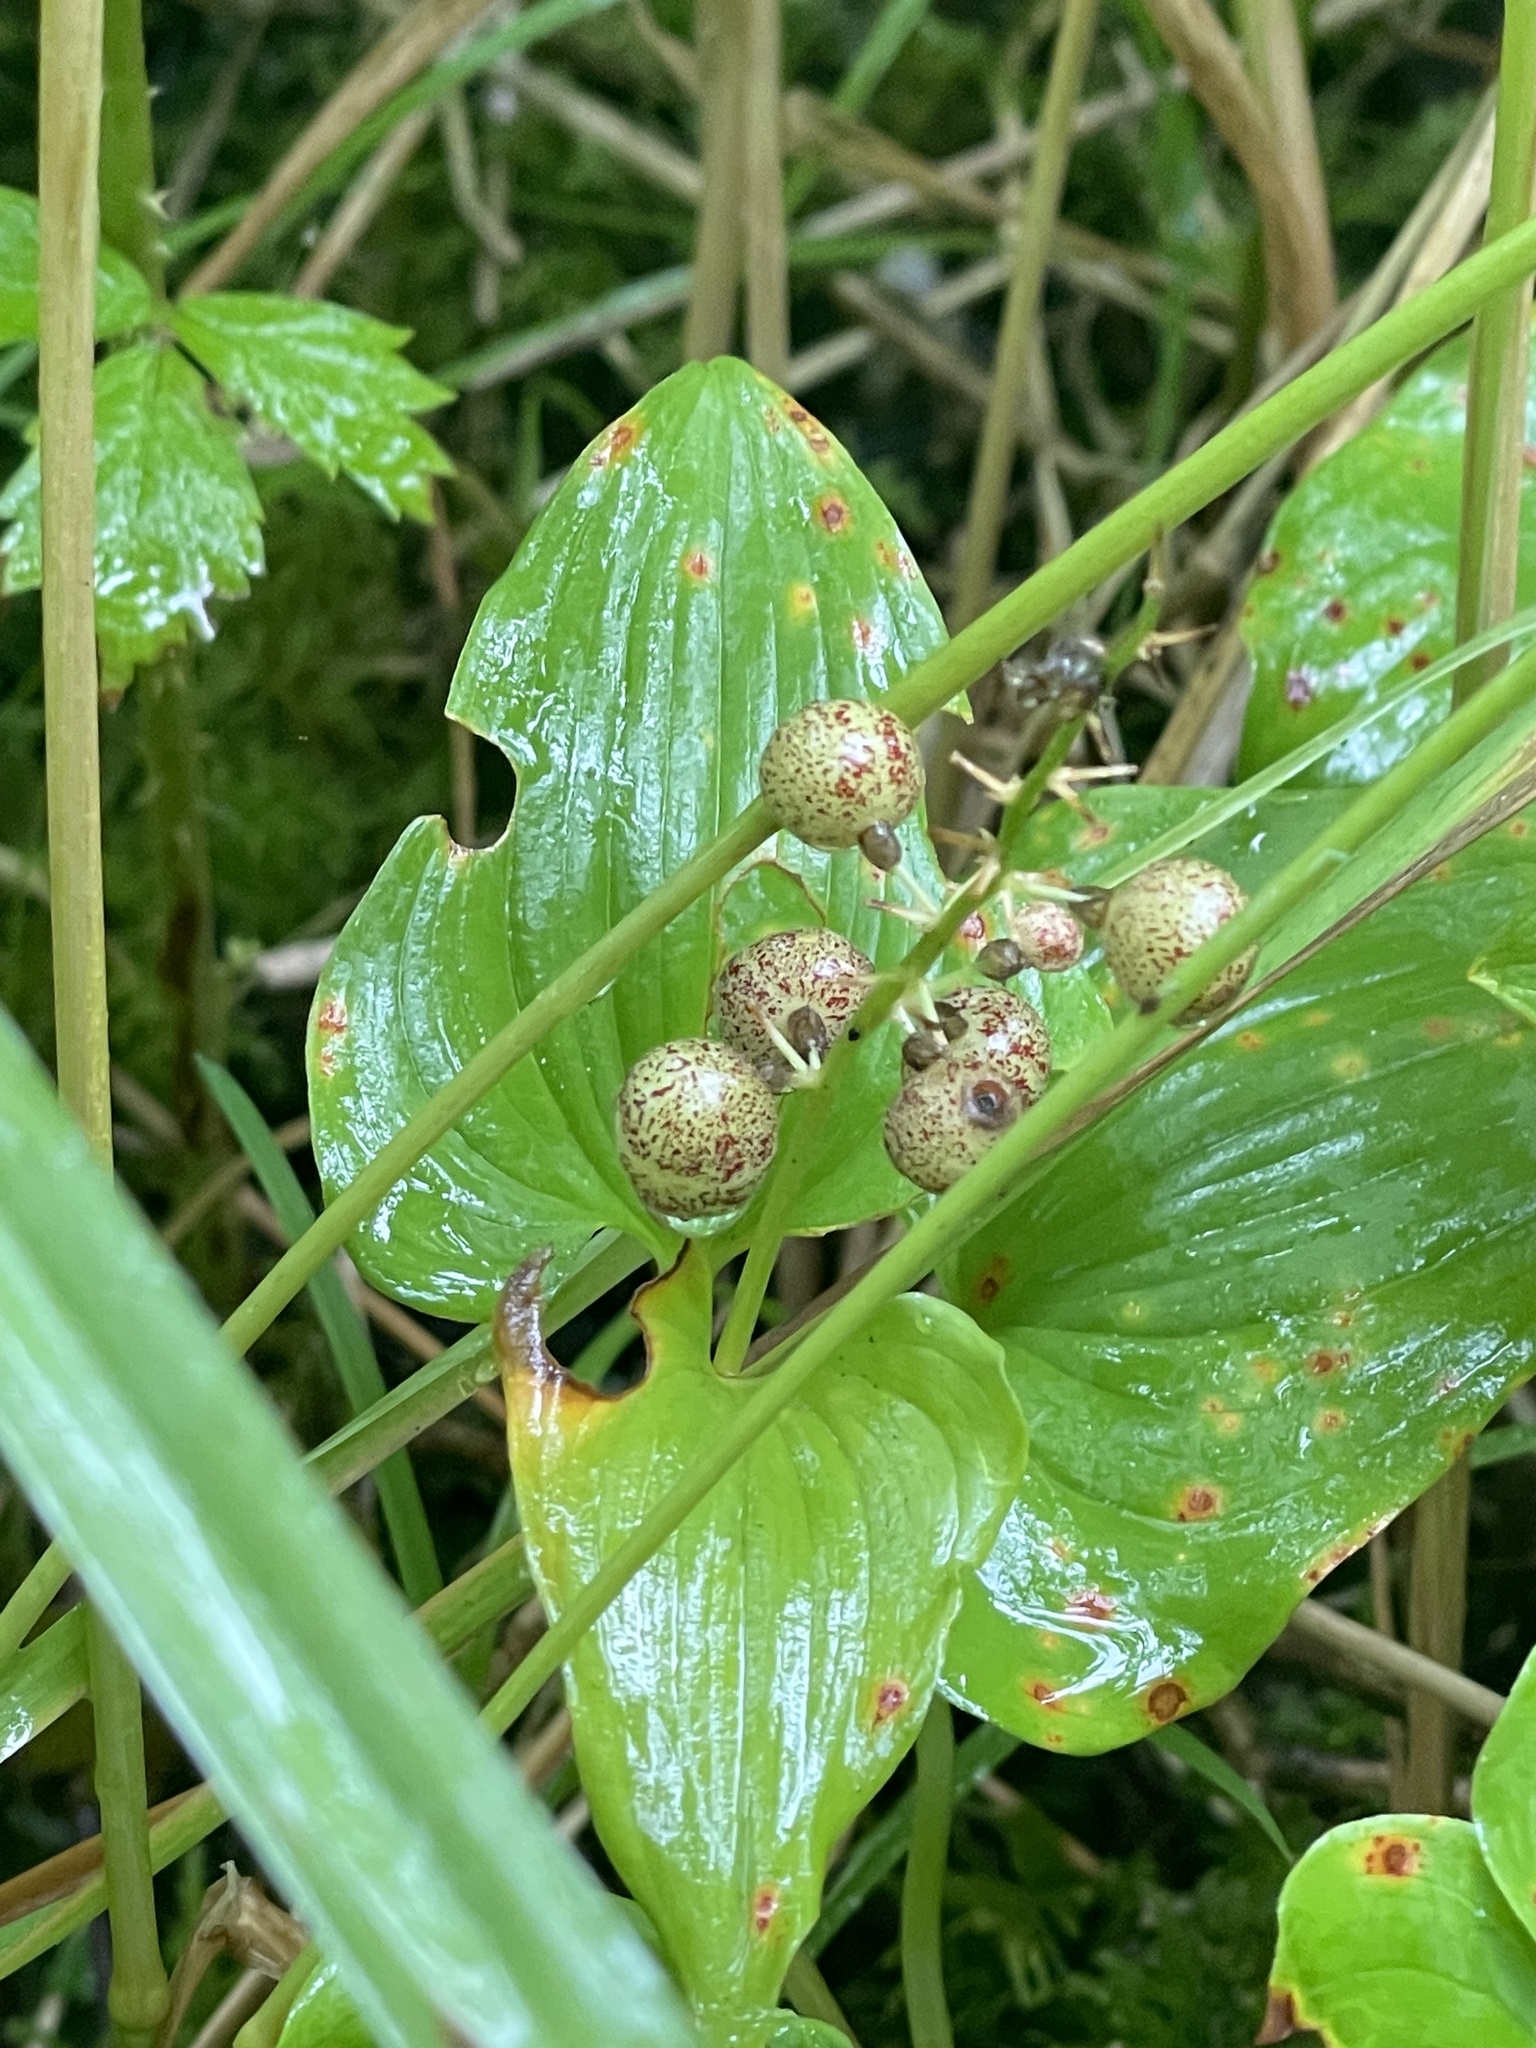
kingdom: Plantae
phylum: Tracheophyta
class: Liliopsida
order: Asparagales
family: Asparagaceae
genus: Maianthemum
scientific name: Maianthemum dilatatum
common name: False lily-of-the-valley
